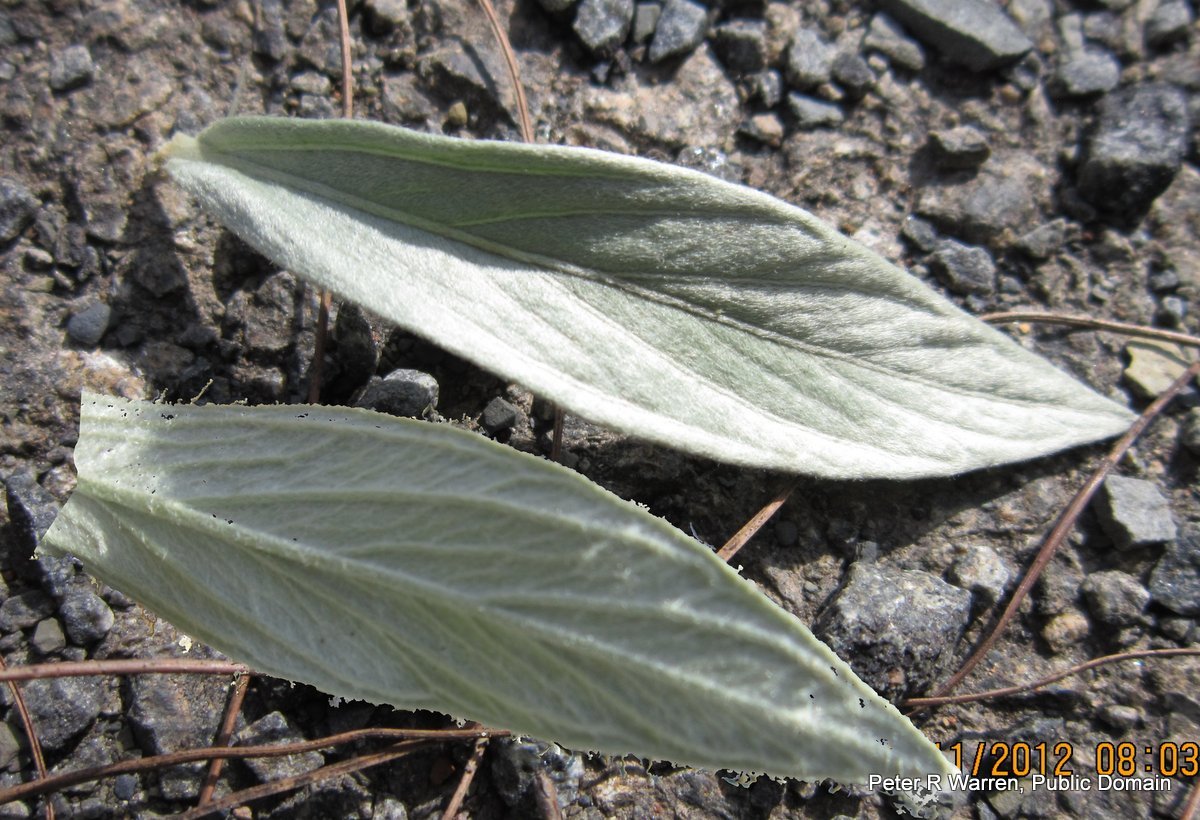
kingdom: Plantae
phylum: Tracheophyta
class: Magnoliopsida
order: Asterales
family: Asteraceae
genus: Hilliardiella
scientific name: Hilliardiella aristata
